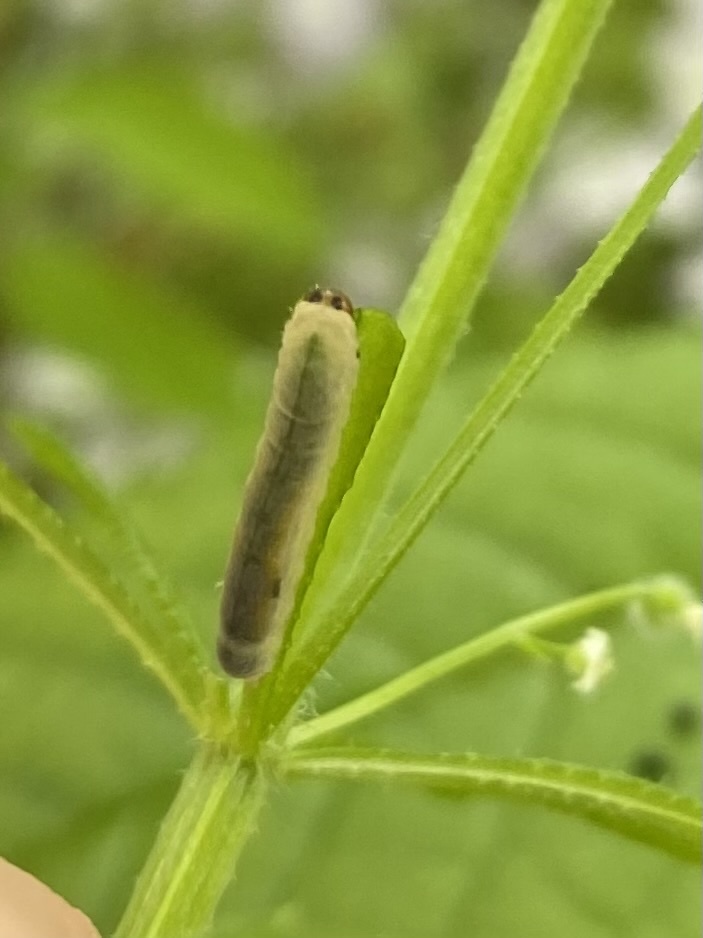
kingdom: Animalia
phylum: Arthropoda
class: Insecta
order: Hymenoptera
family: Tenthredinidae
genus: Halidamia
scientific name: Halidamia affinis
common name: Wasp
